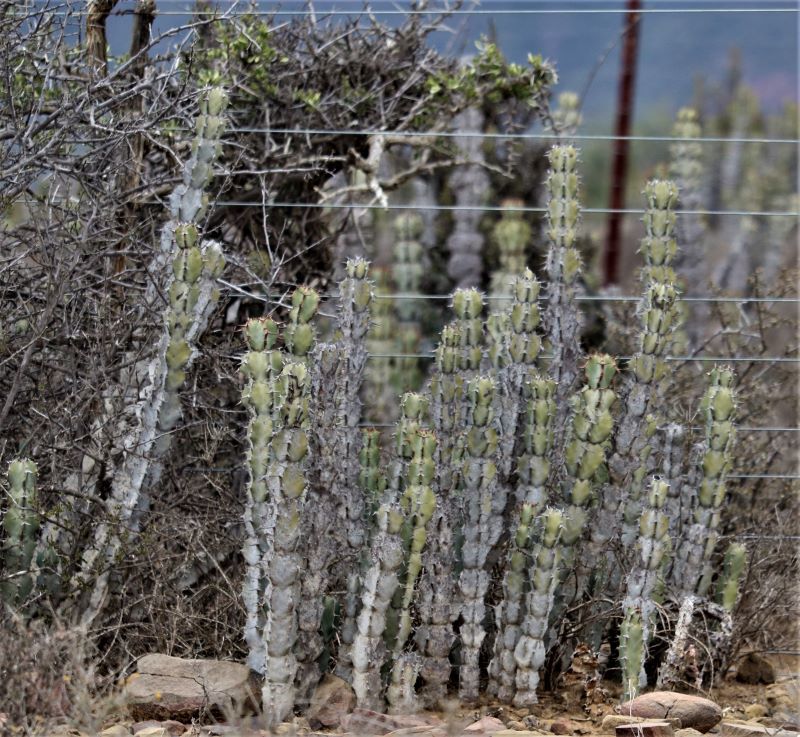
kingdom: Plantae
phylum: Tracheophyta
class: Magnoliopsida
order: Malpighiales
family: Euphorbiaceae
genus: Euphorbia
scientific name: Euphorbia radyeri
